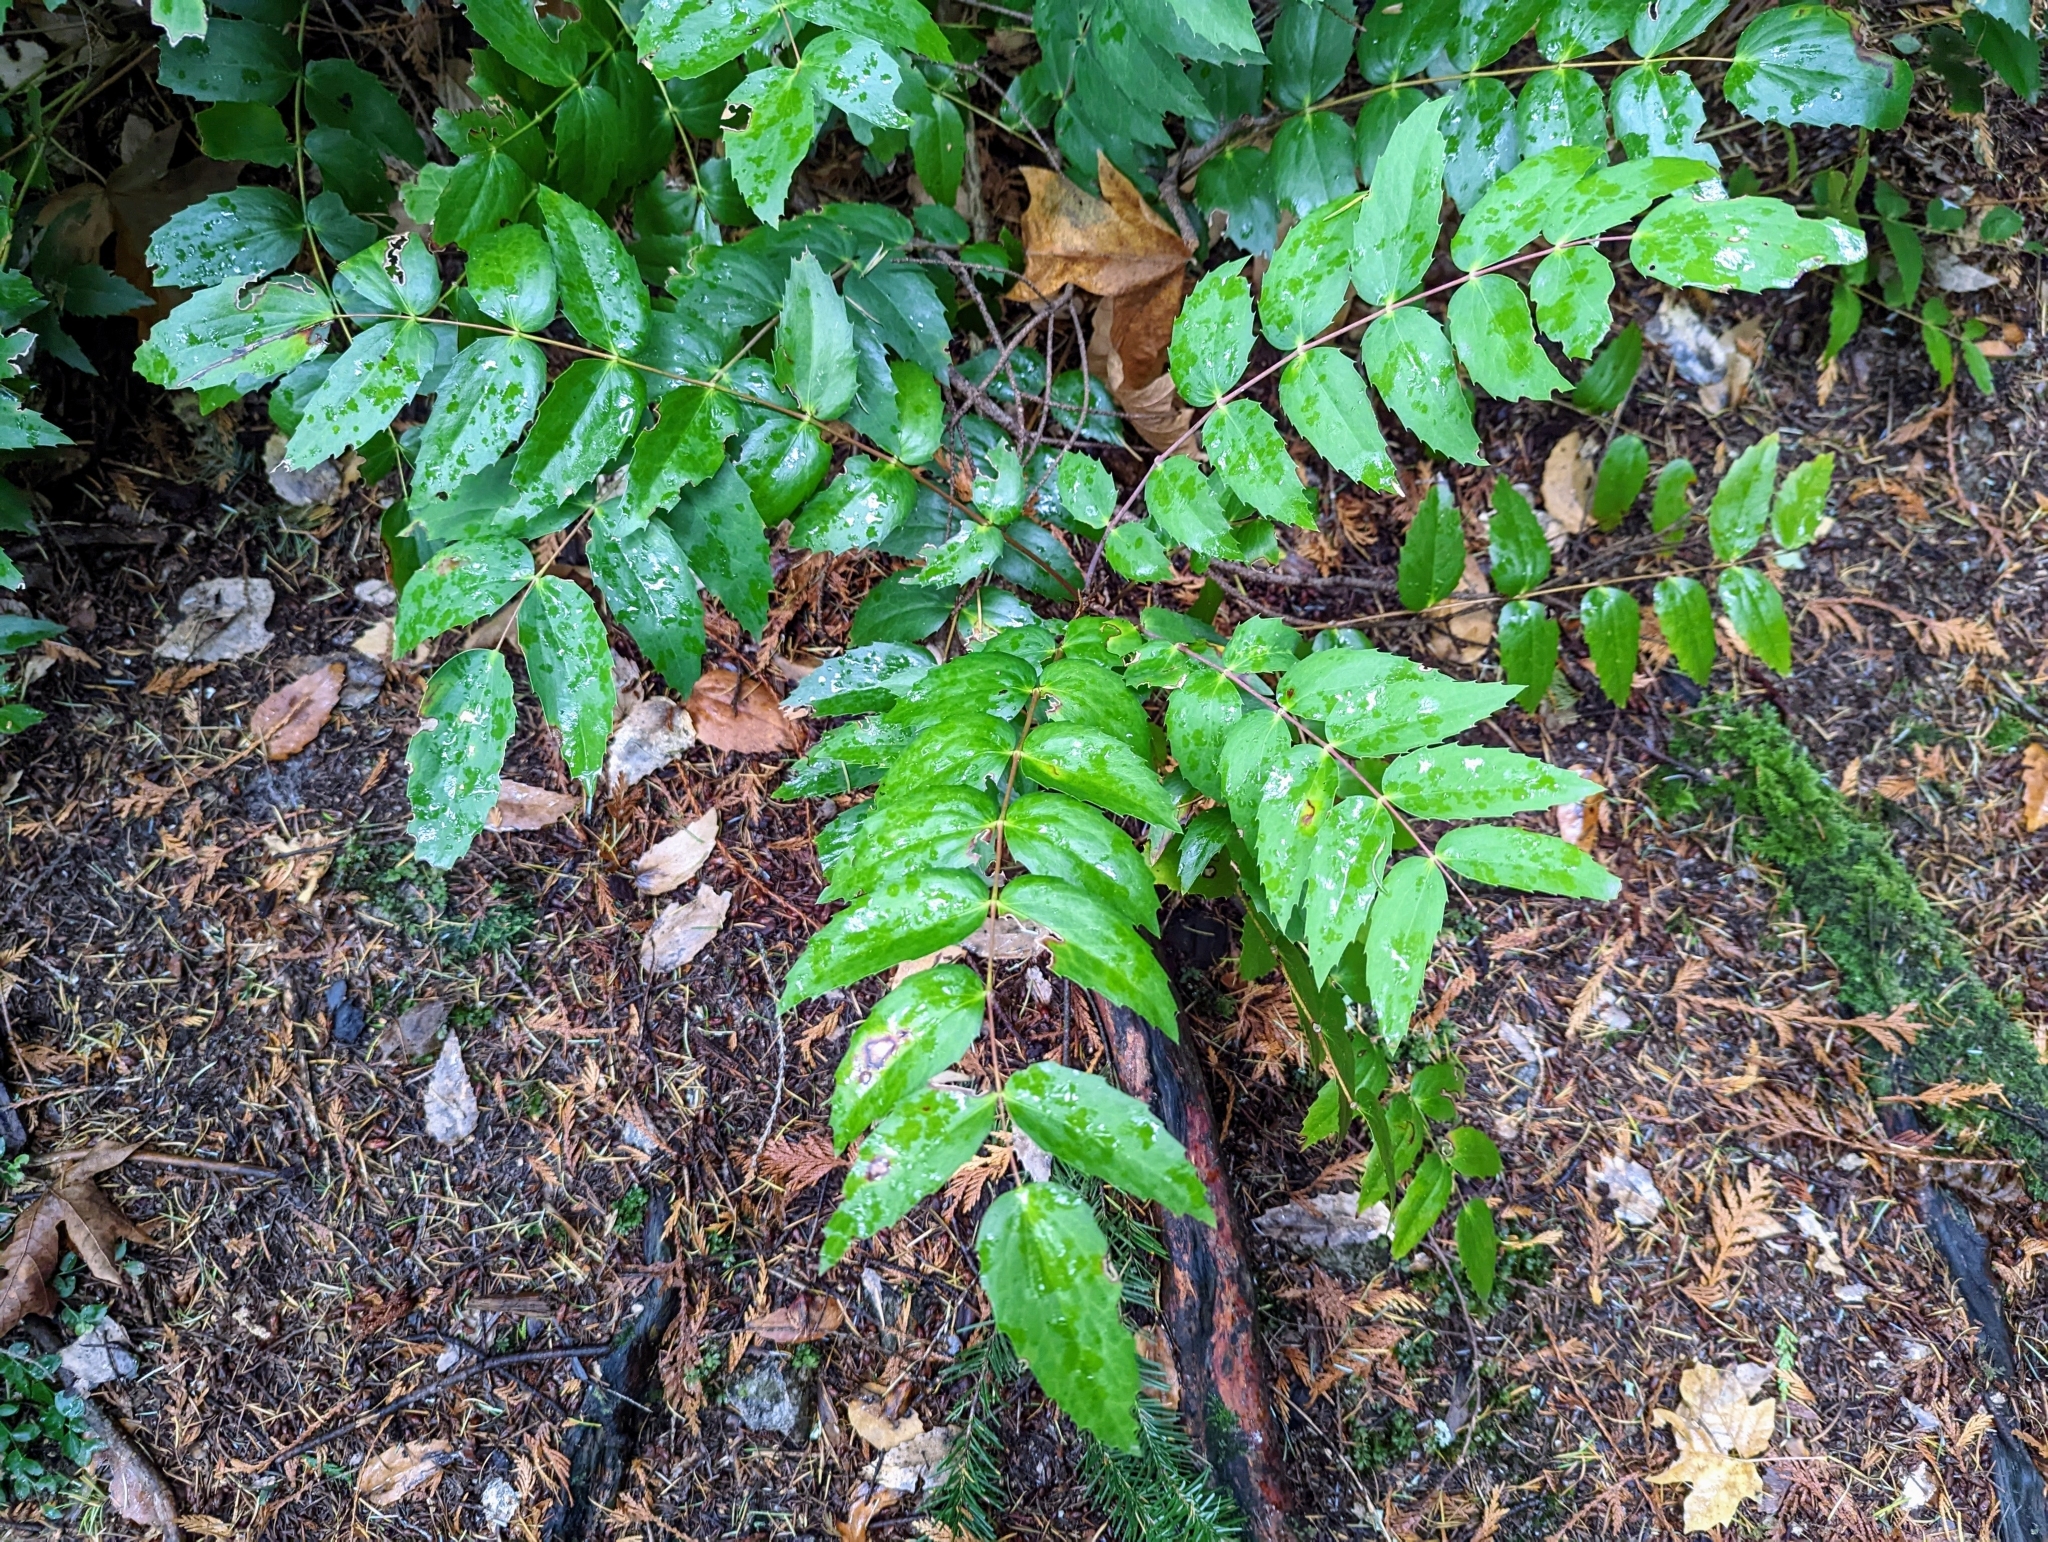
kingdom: Plantae
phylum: Tracheophyta
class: Magnoliopsida
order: Ranunculales
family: Berberidaceae
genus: Mahonia
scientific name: Mahonia nervosa
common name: Cascade oregon-grape
